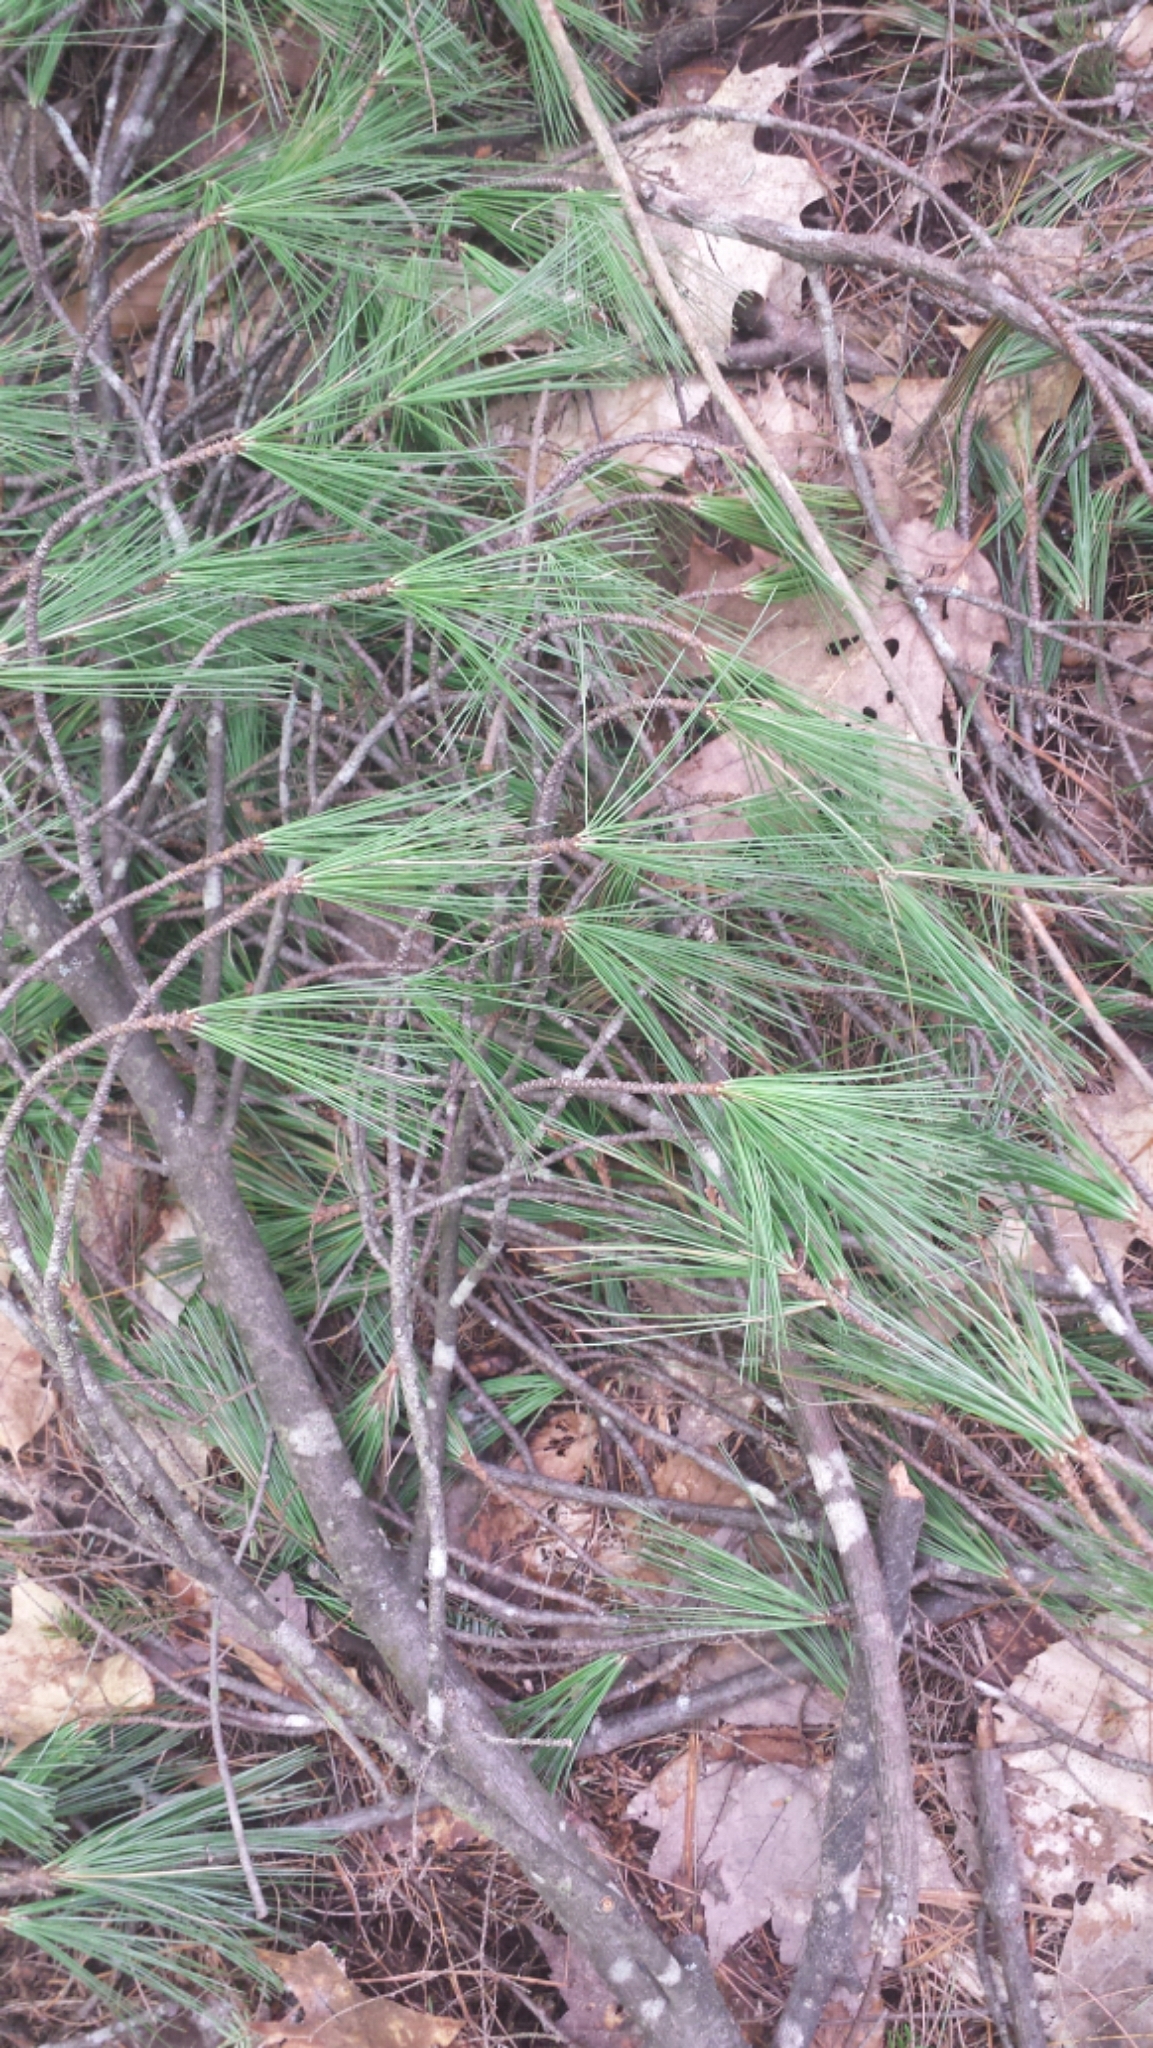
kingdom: Plantae
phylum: Tracheophyta
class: Pinopsida
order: Pinales
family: Pinaceae
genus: Pinus
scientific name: Pinus strobus
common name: Weymouth pine
